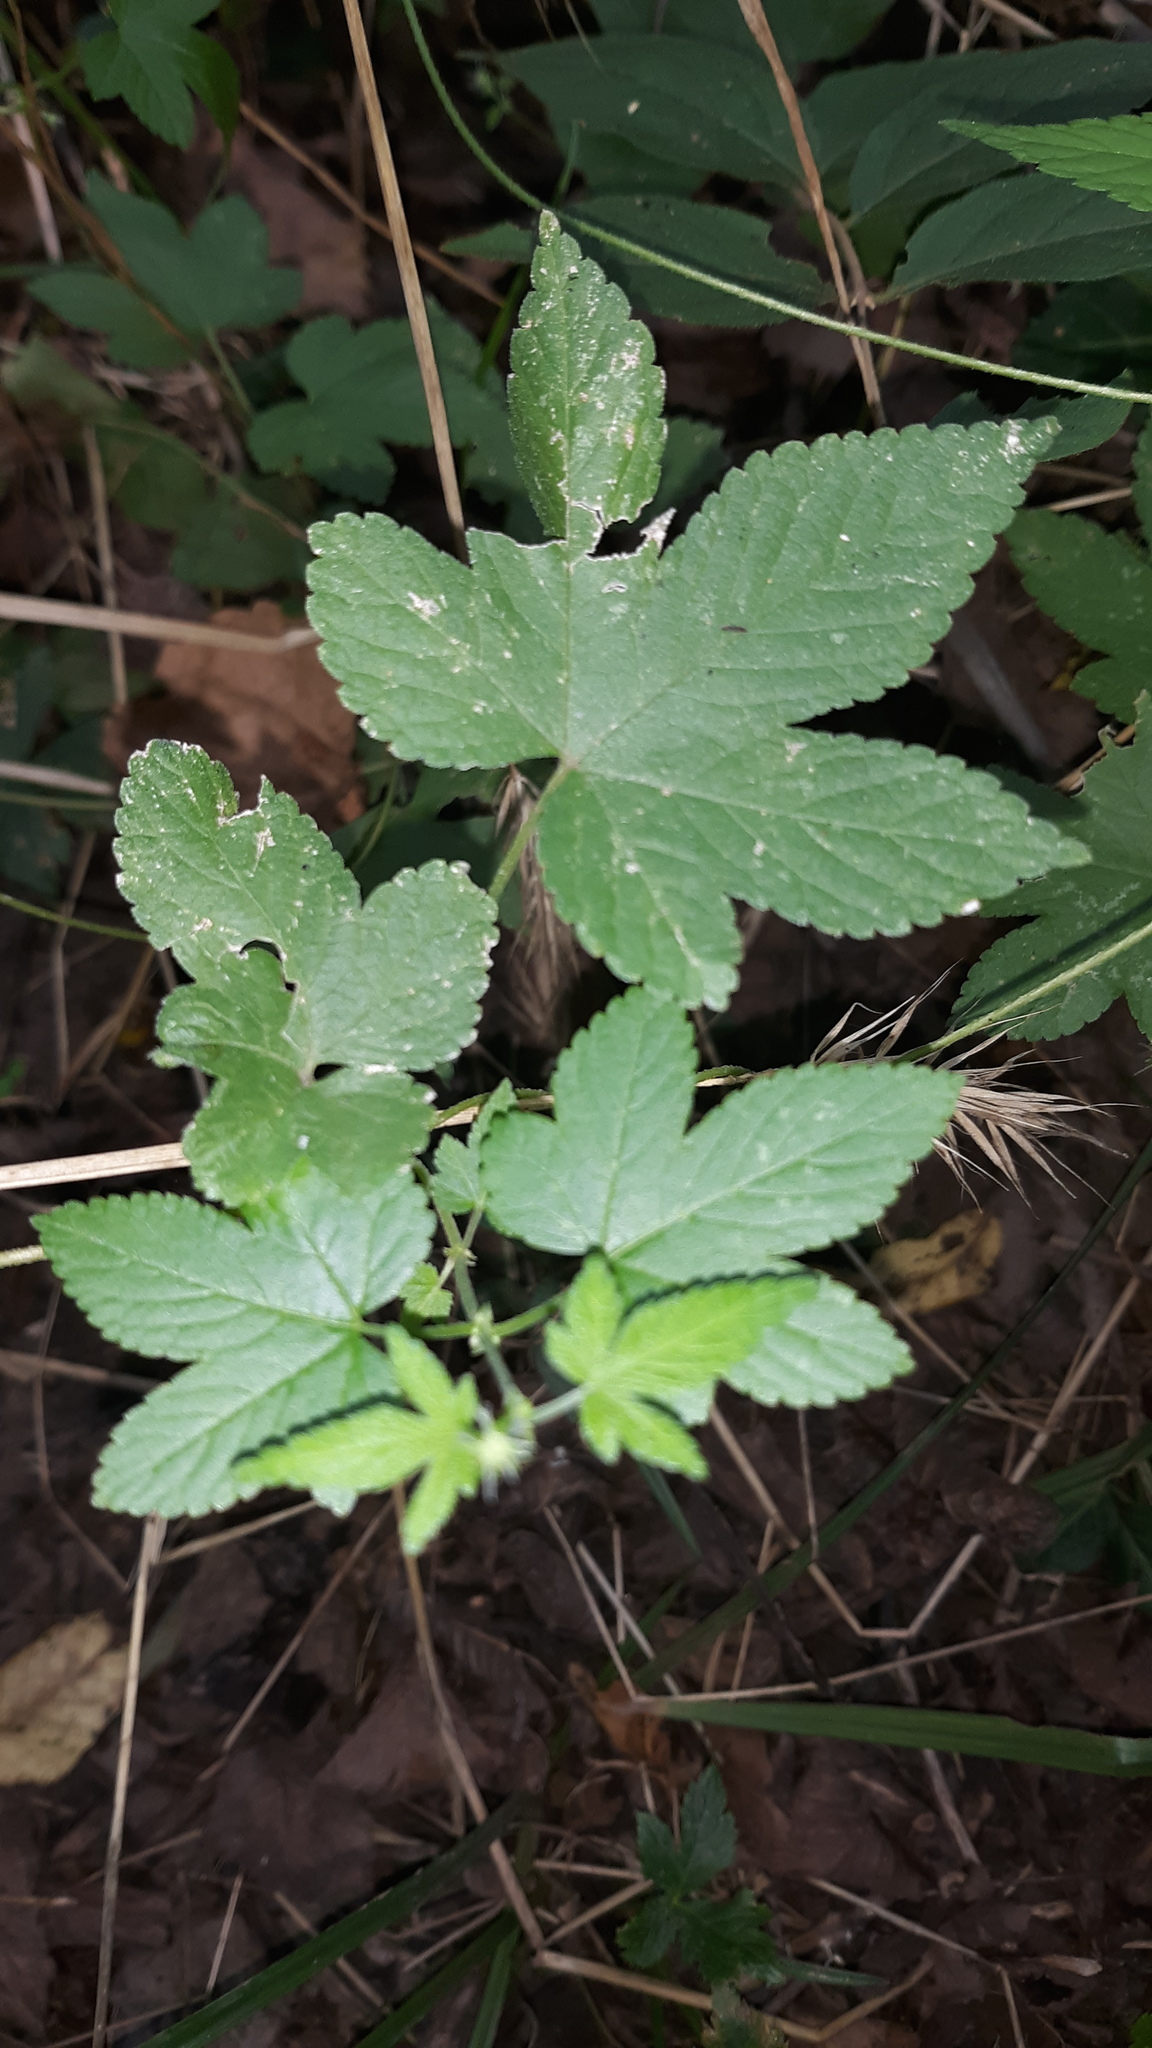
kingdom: Plantae
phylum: Tracheophyta
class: Magnoliopsida
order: Rosales
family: Cannabaceae
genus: Humulus
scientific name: Humulus scandens
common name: Japanese hop
